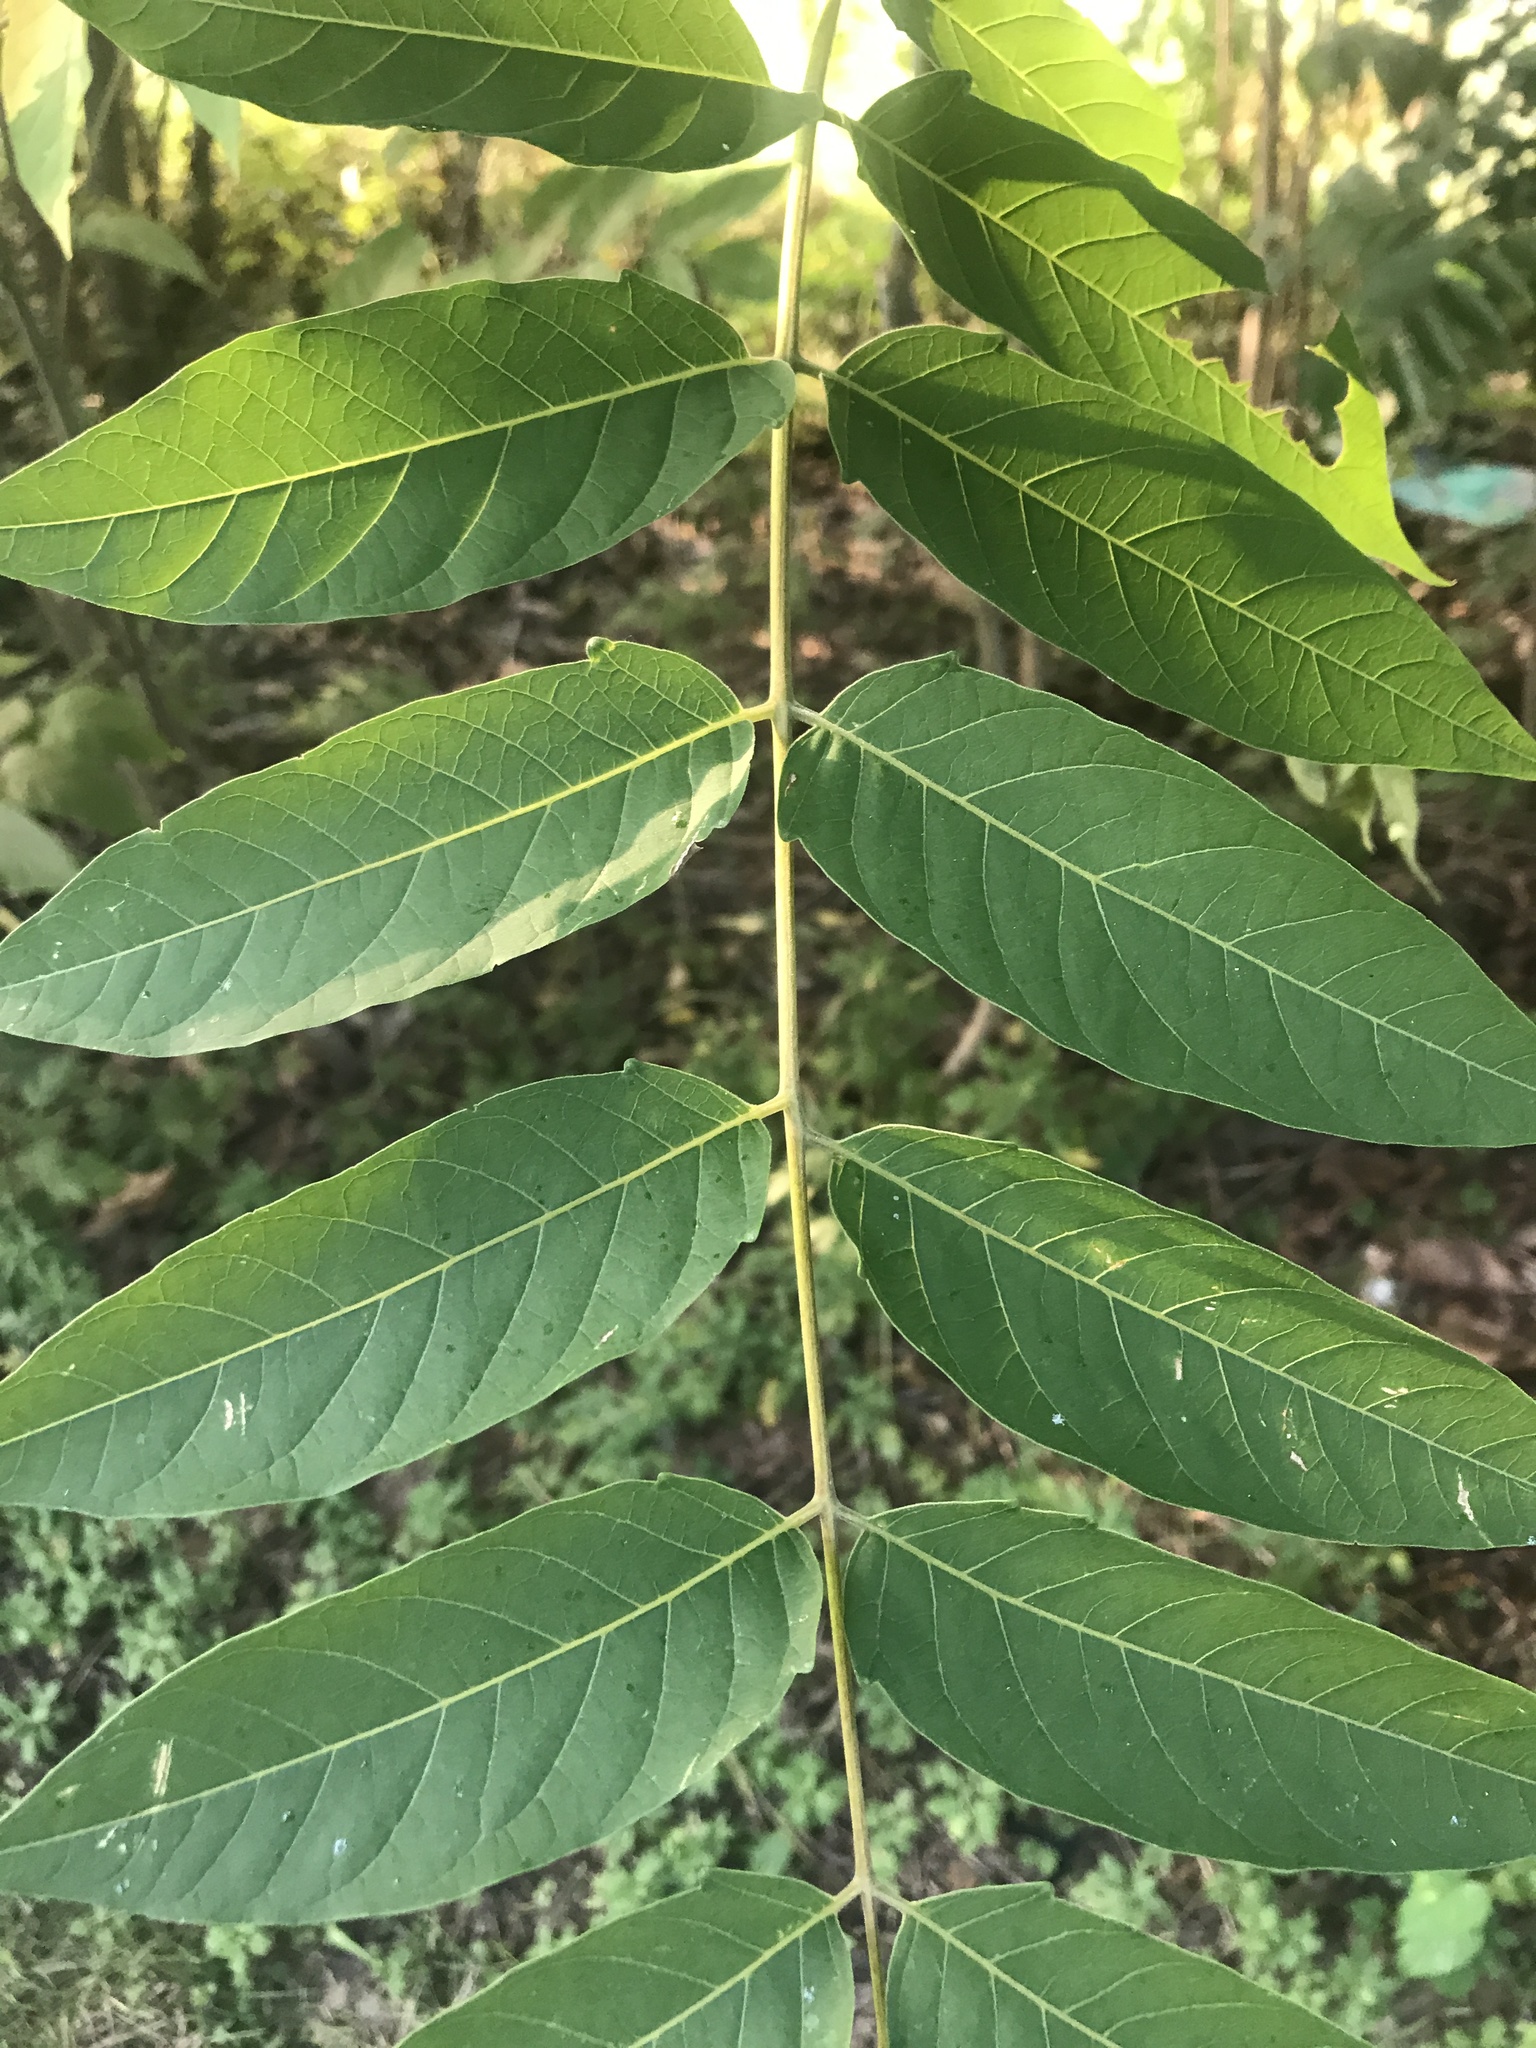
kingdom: Plantae
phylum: Tracheophyta
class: Magnoliopsida
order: Sapindales
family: Simaroubaceae
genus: Ailanthus
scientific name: Ailanthus altissima
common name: Tree-of-heaven
